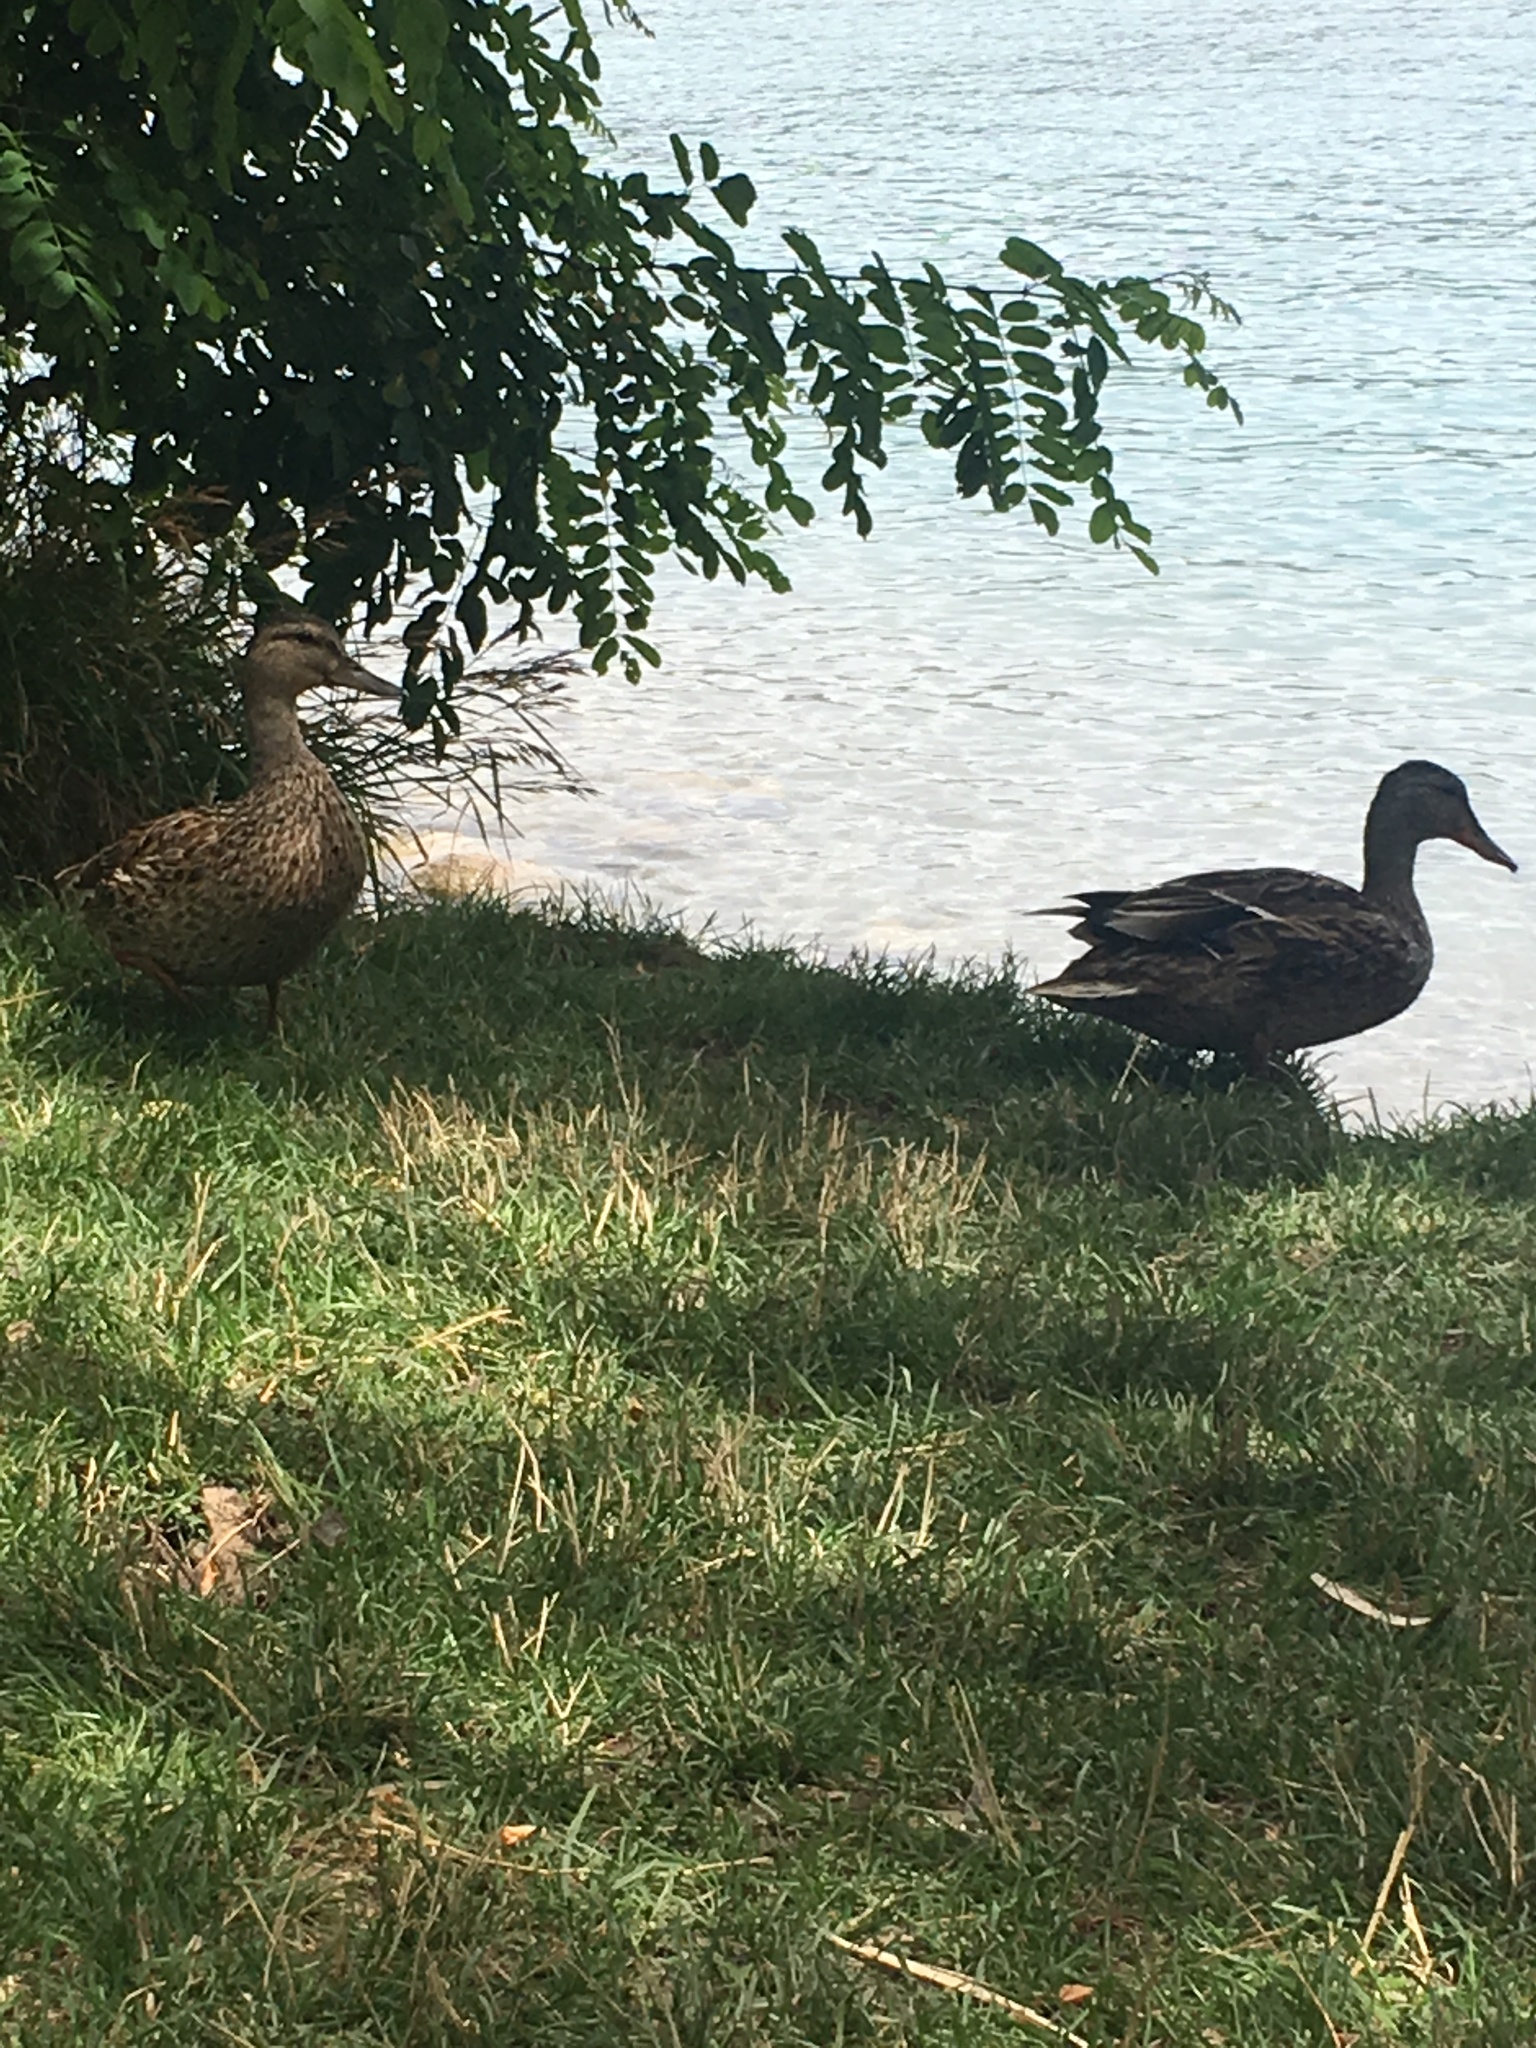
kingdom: Animalia
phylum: Chordata
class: Aves
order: Anseriformes
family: Anatidae
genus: Anas
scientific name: Anas platyrhynchos
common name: Mallard
